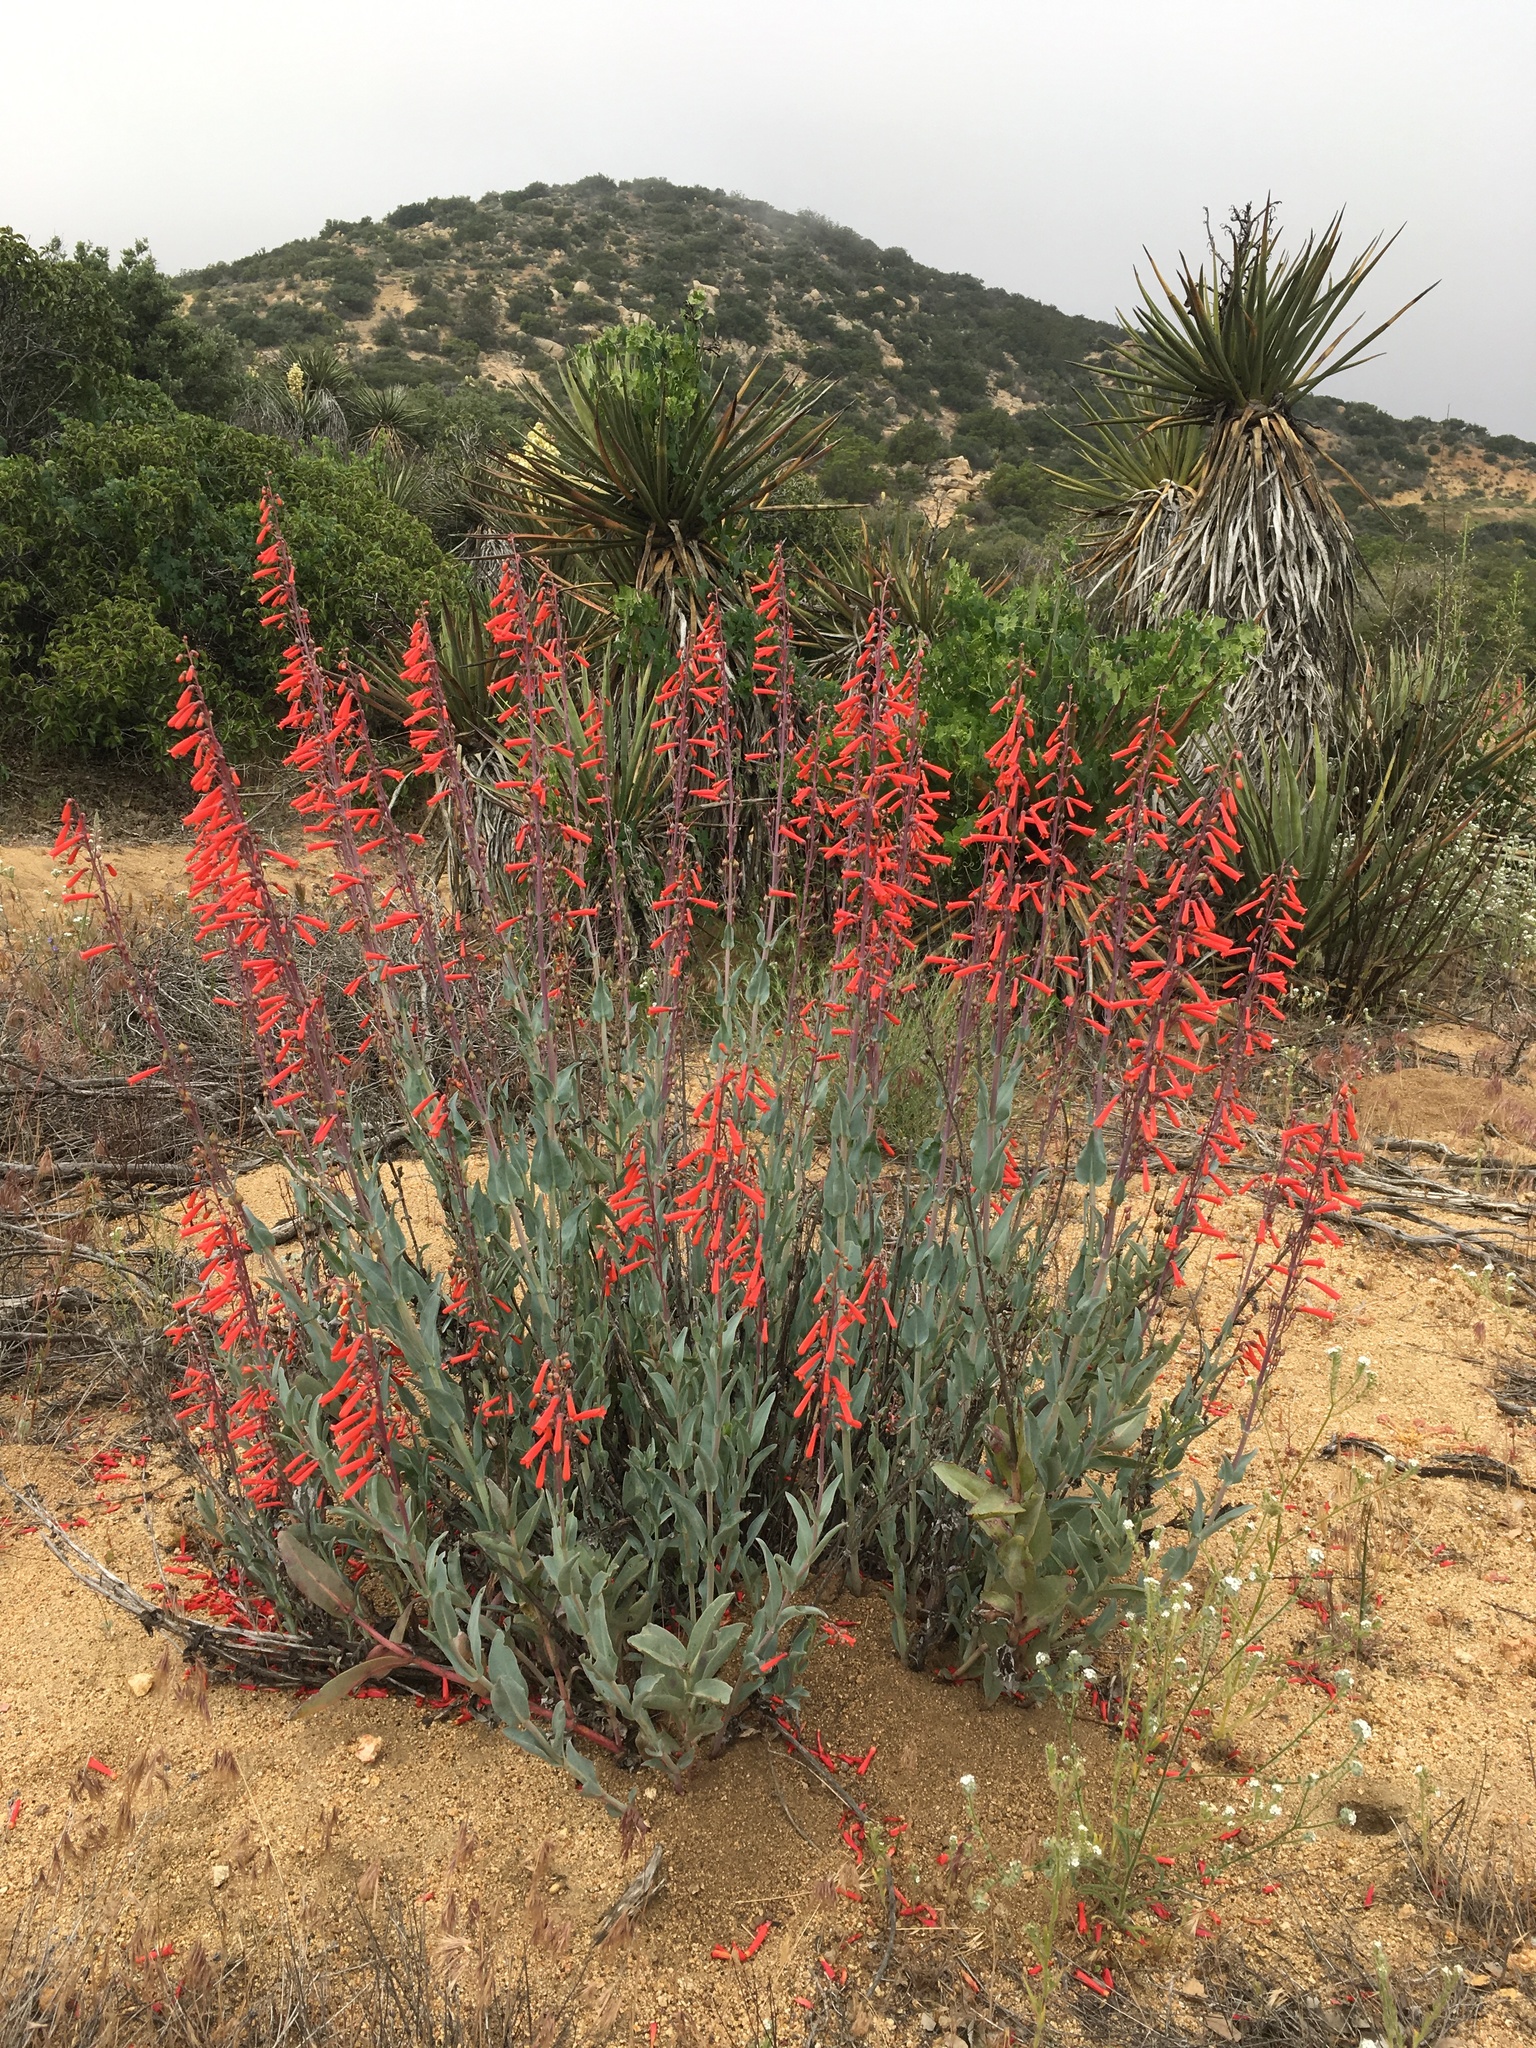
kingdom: Plantae
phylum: Tracheophyta
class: Magnoliopsida
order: Lamiales
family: Plantaginaceae
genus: Penstemon
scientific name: Penstemon centranthifolius
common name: Scarlet bugler
